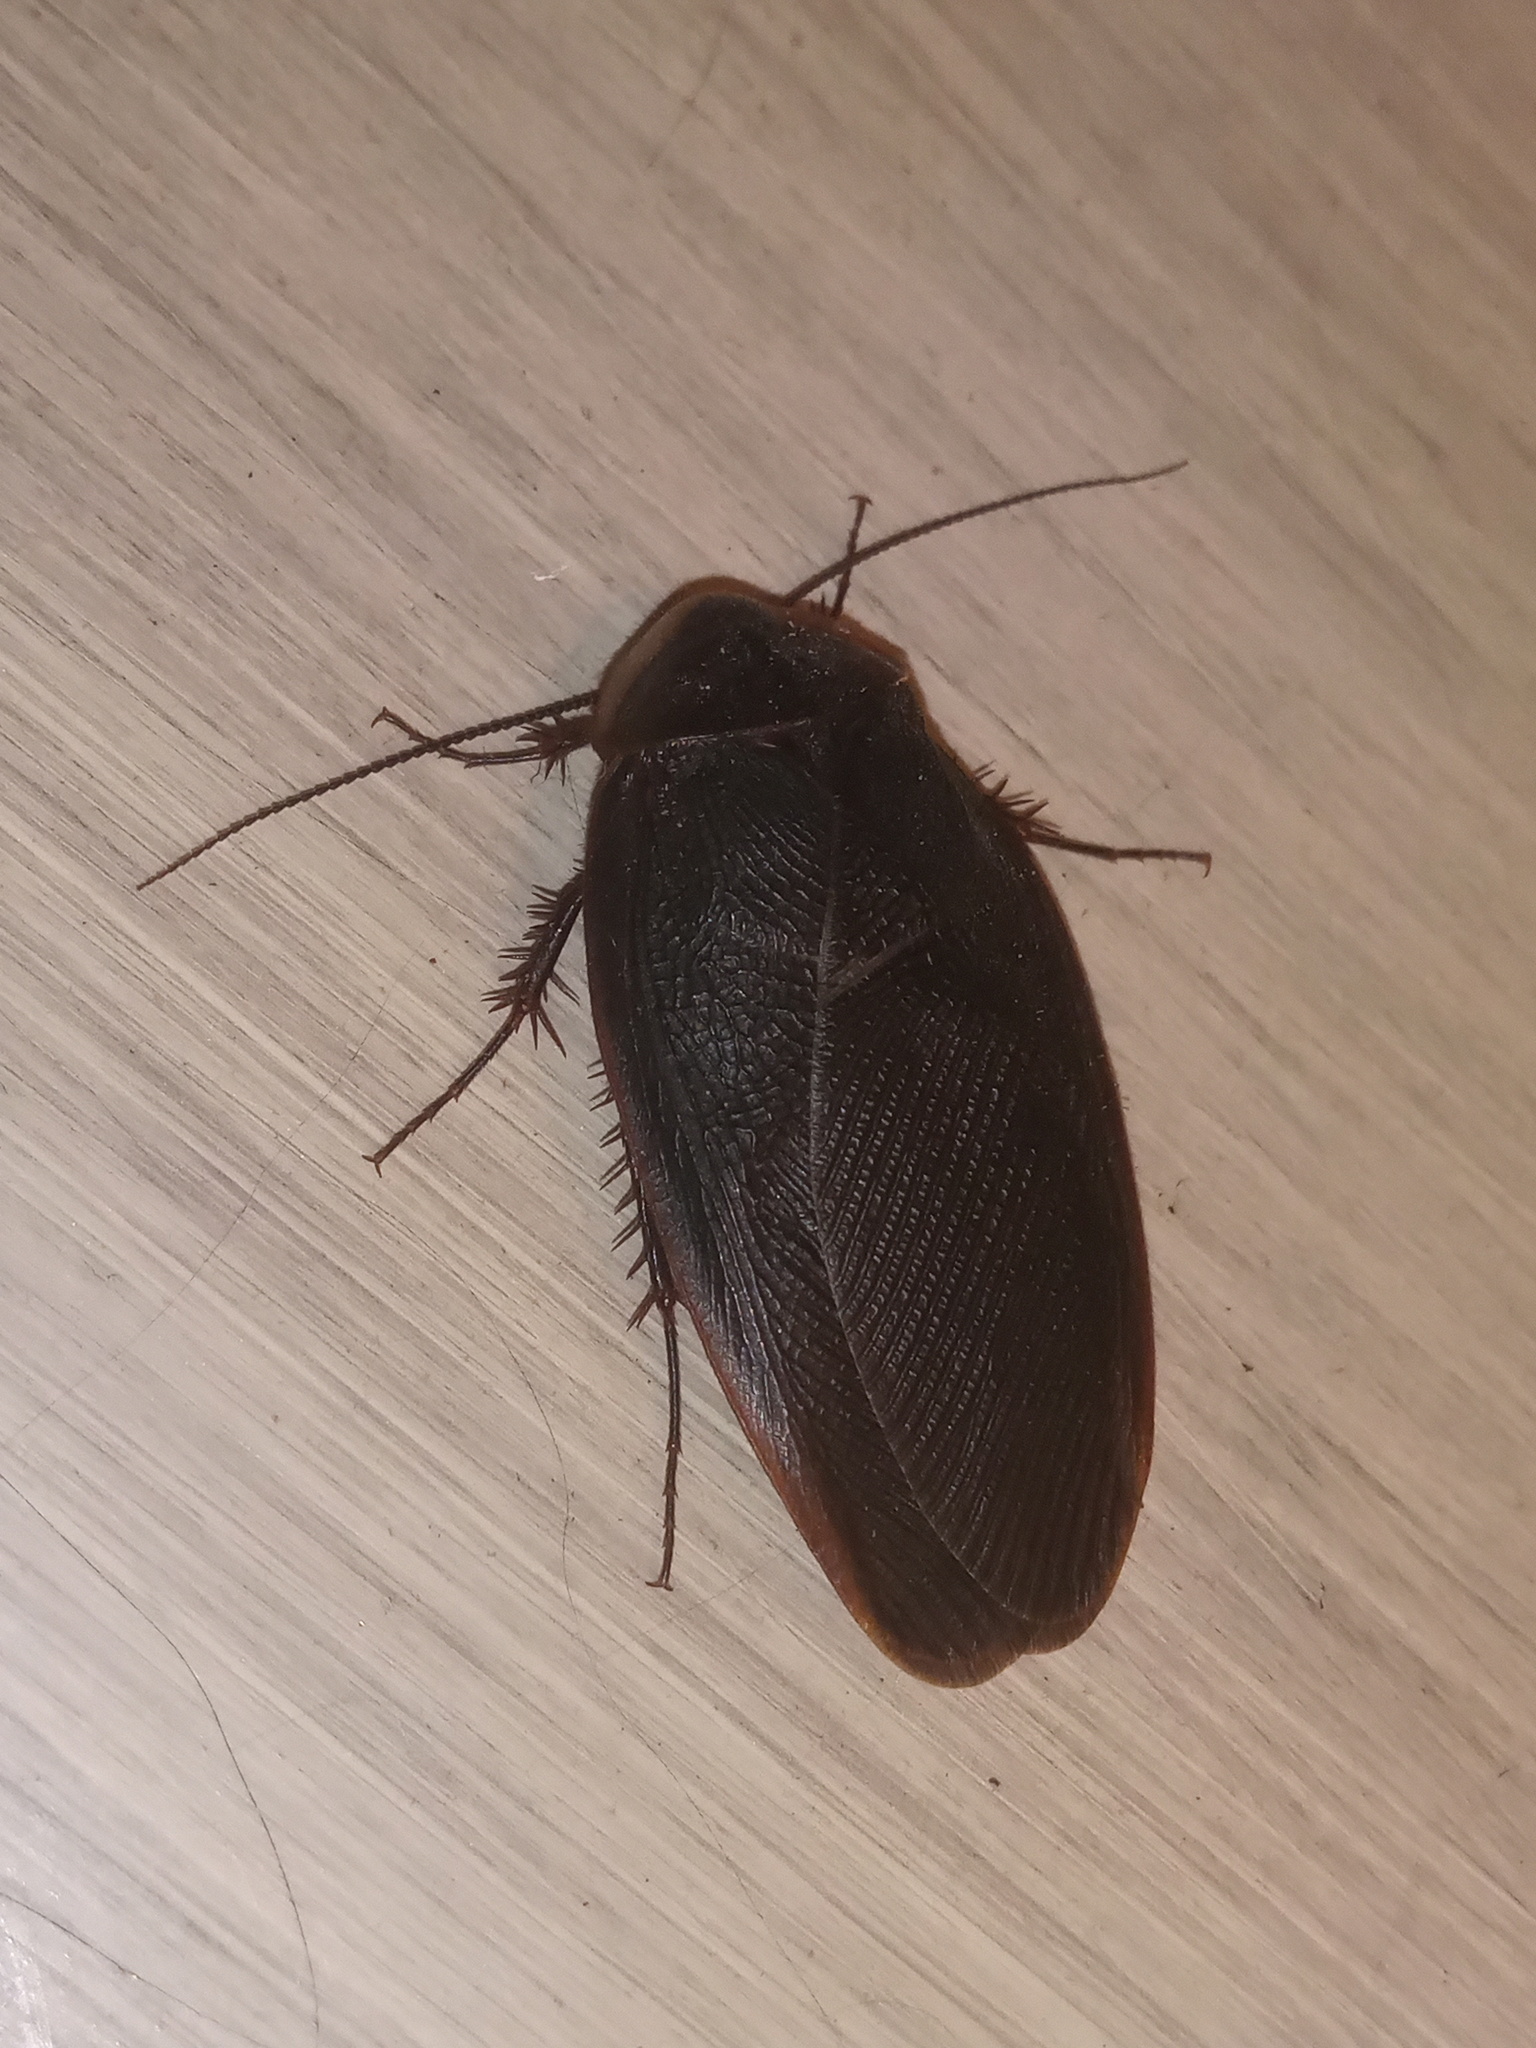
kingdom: Animalia
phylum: Arthropoda
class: Insecta
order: Blattodea
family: Corydiidae
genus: Arenivaga
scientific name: Arenivaga bolliana
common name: Boll's sand cockroach
